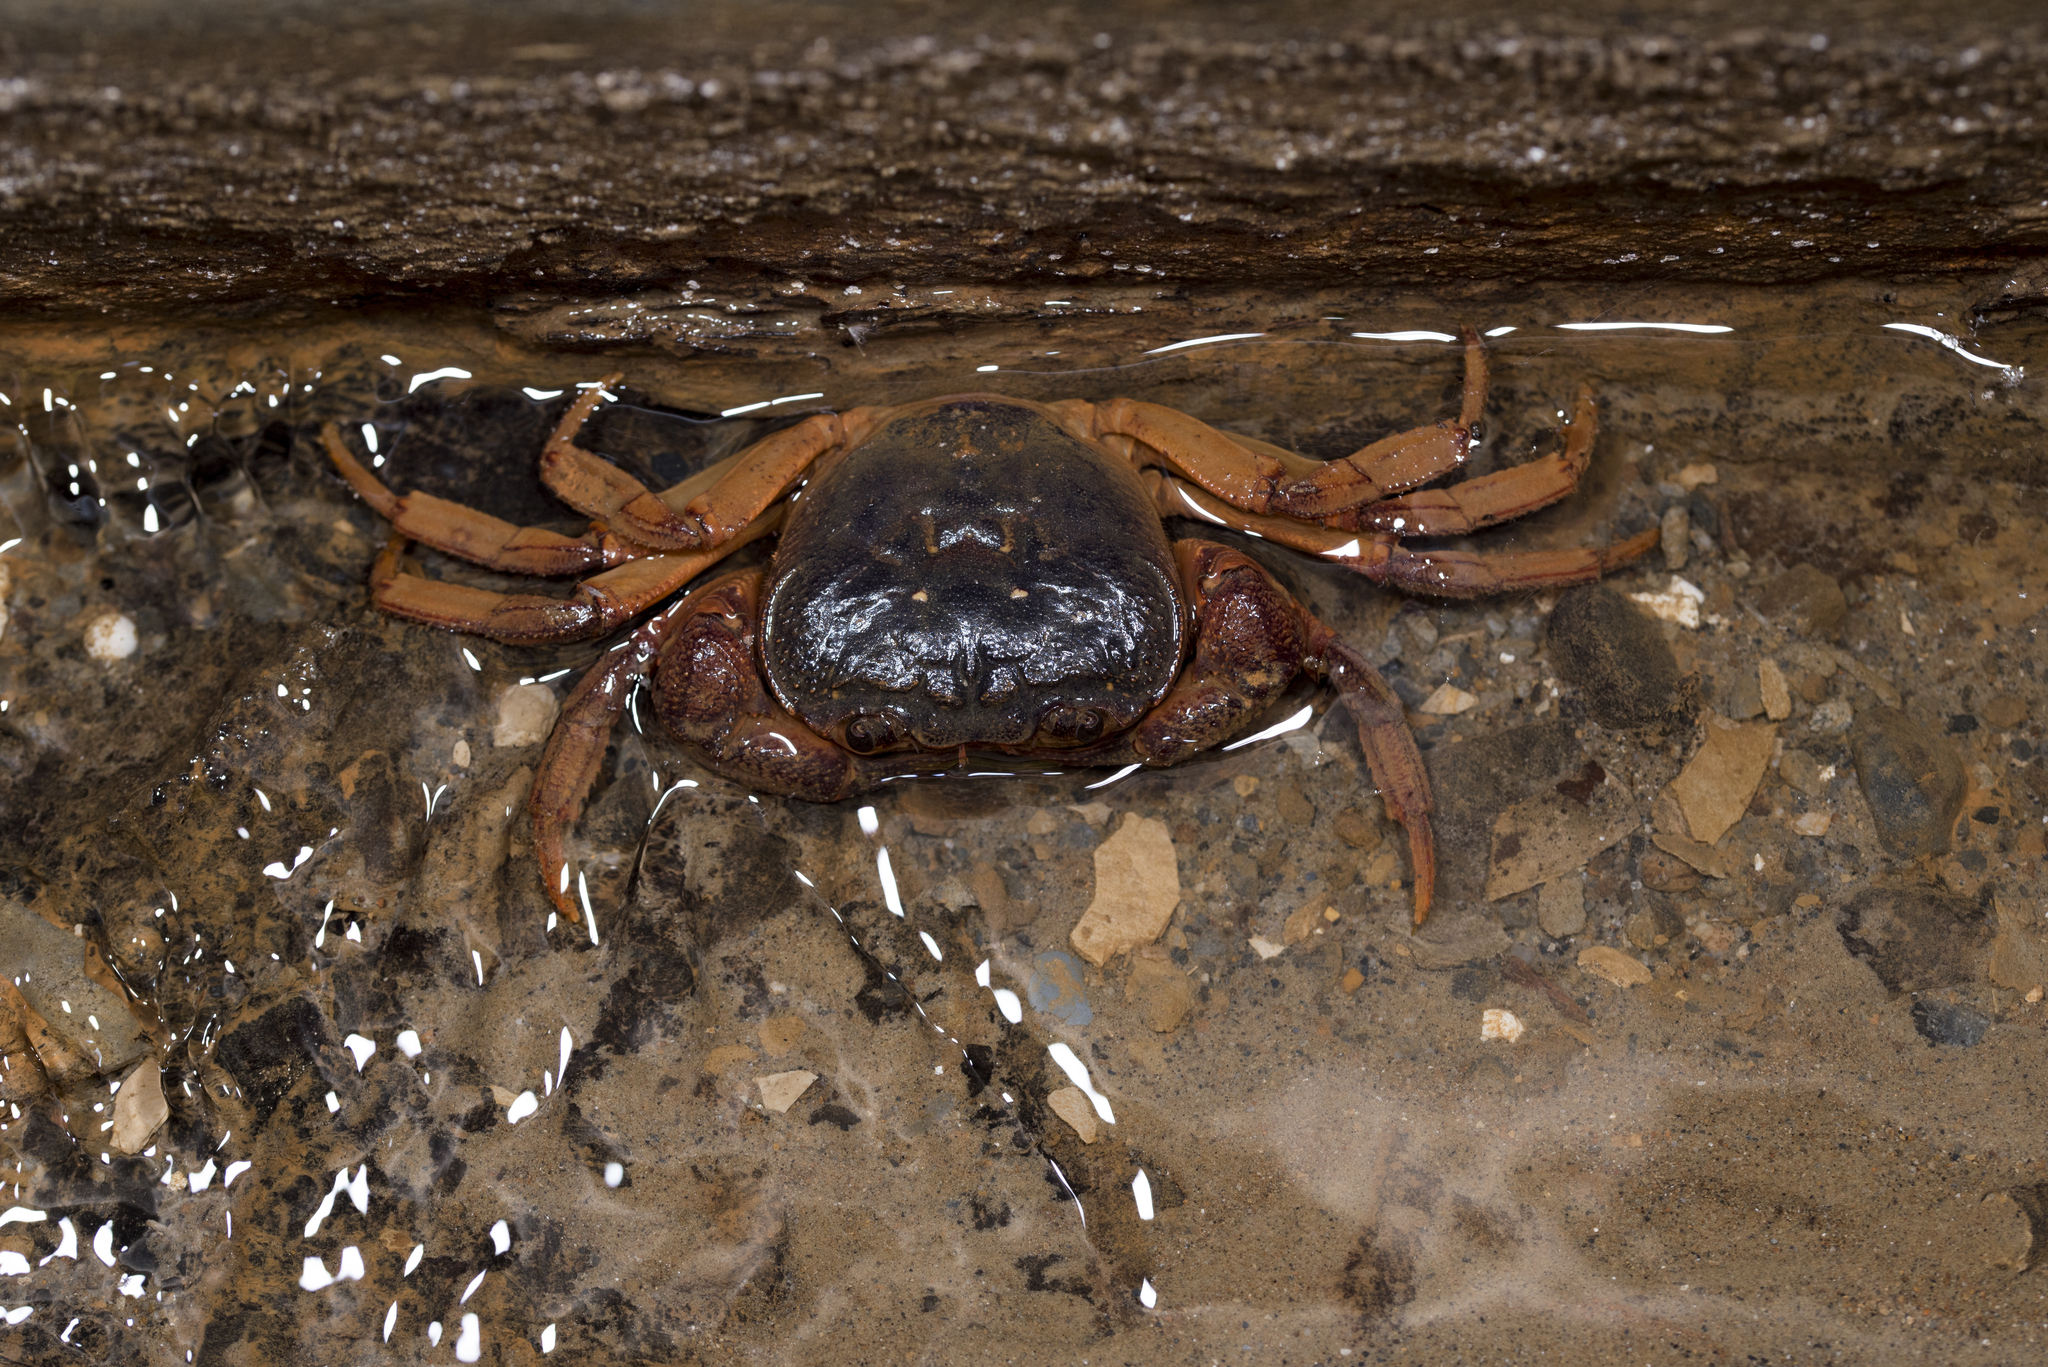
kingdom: Animalia
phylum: Arthropoda
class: Malacostraca
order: Decapoda
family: Potamidae
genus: Candidiopotamon
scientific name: Candidiopotamon rathbuni
